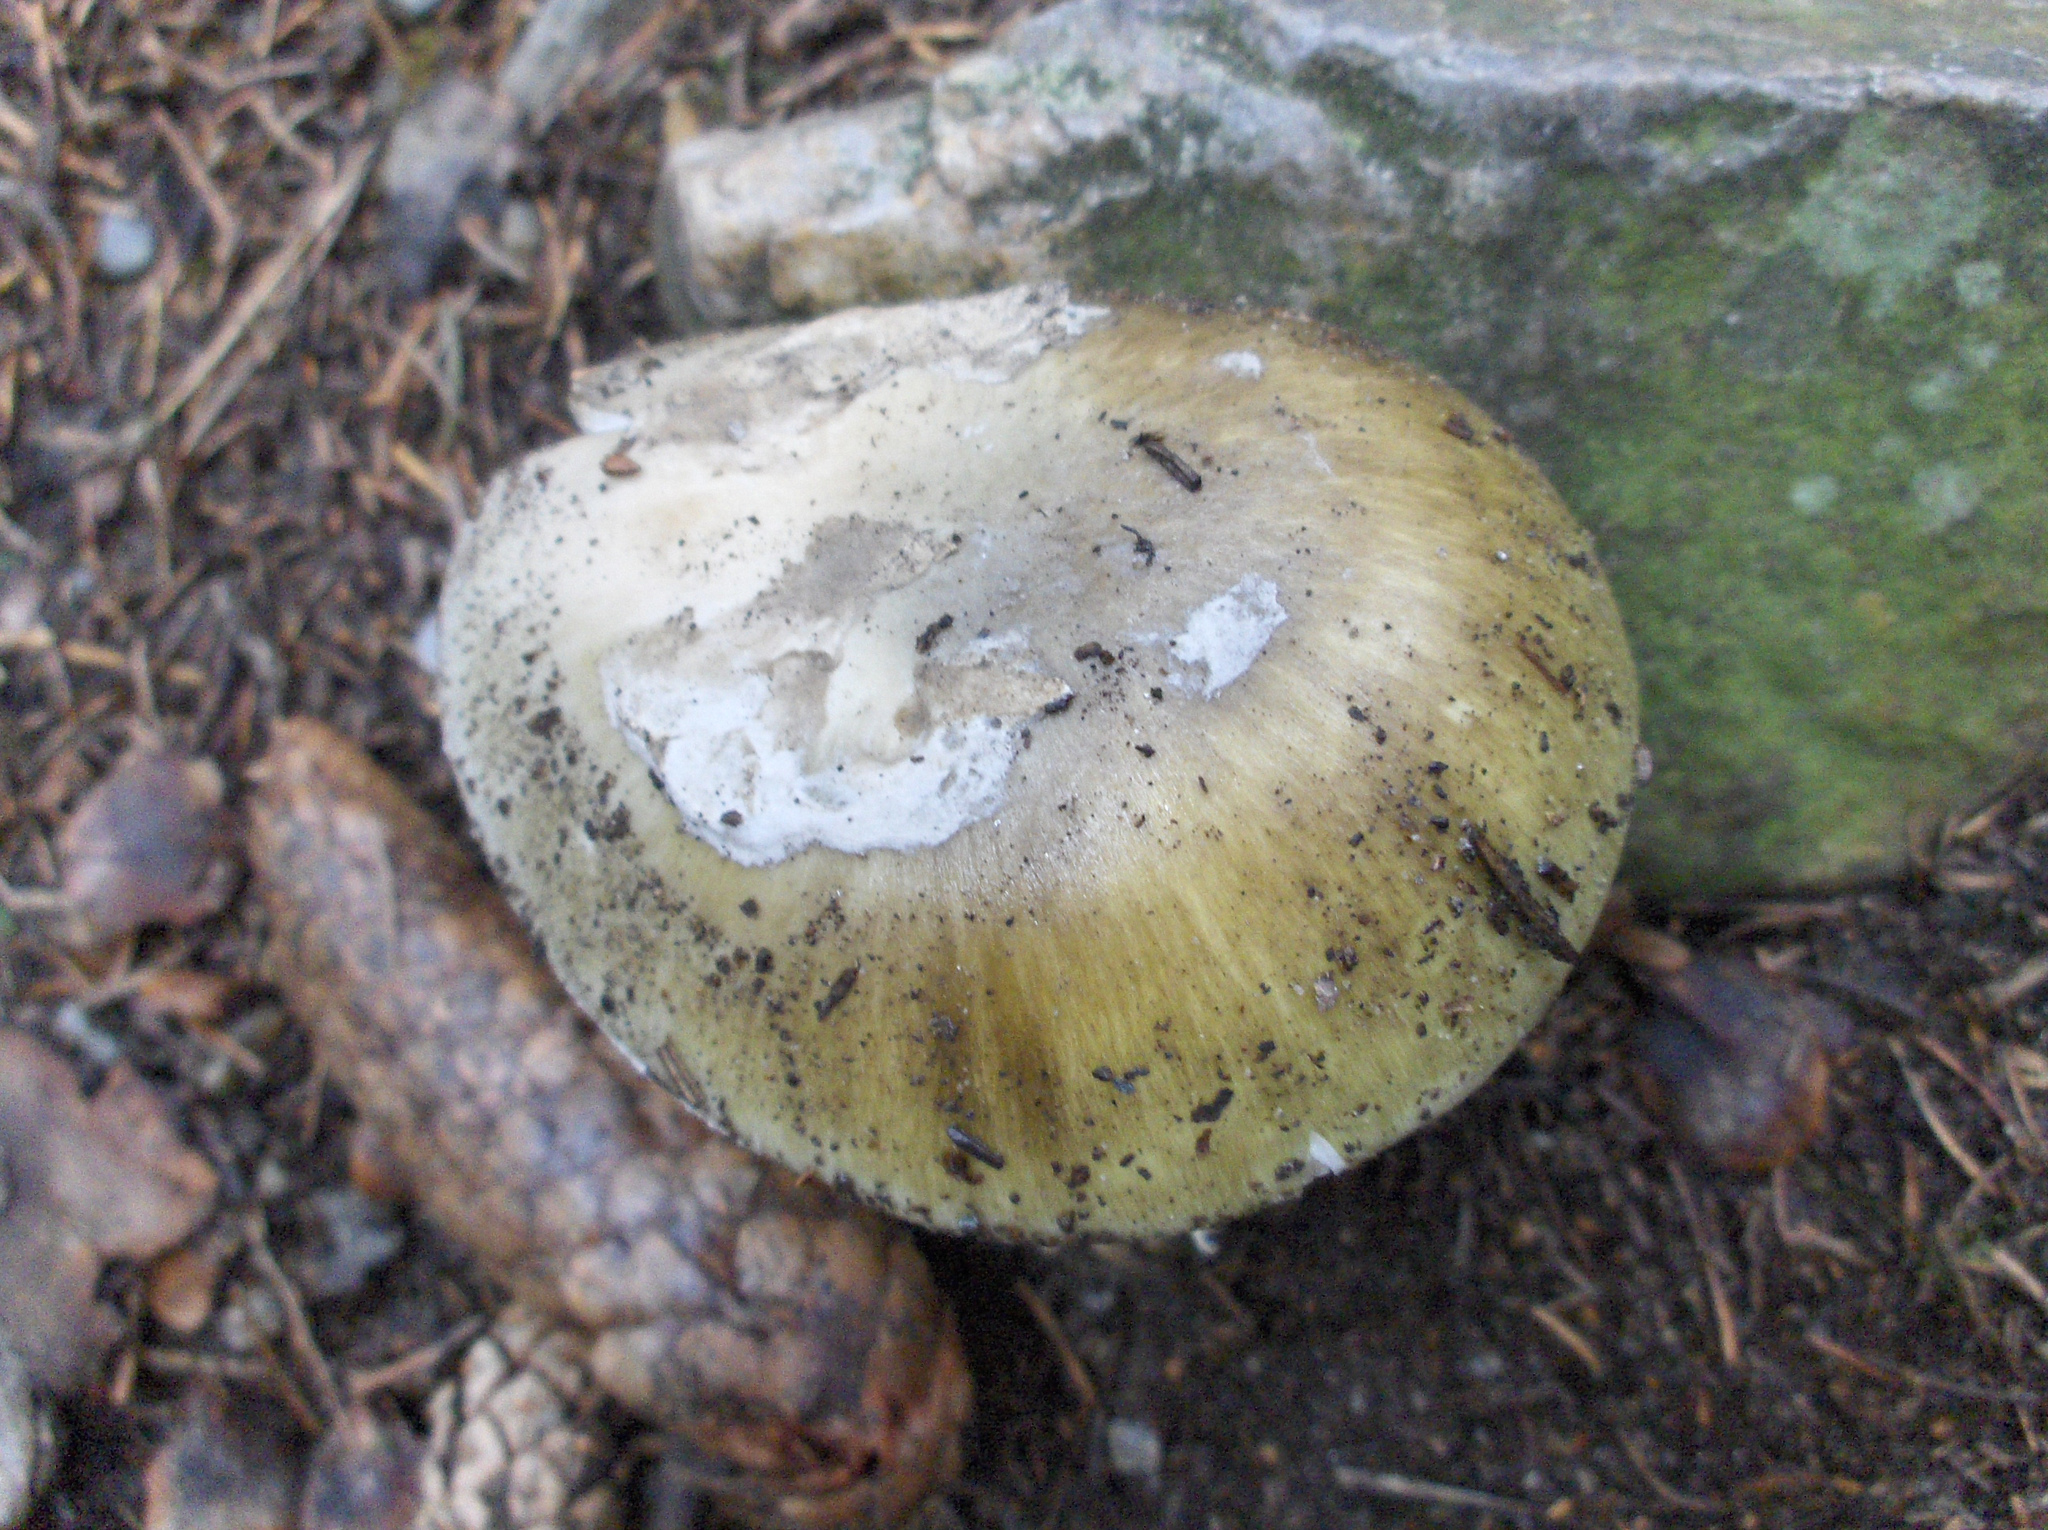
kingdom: Fungi
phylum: Basidiomycota
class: Agaricomycetes
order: Agaricales
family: Amanitaceae
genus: Amanita
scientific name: Amanita phalloides
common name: Death cap
